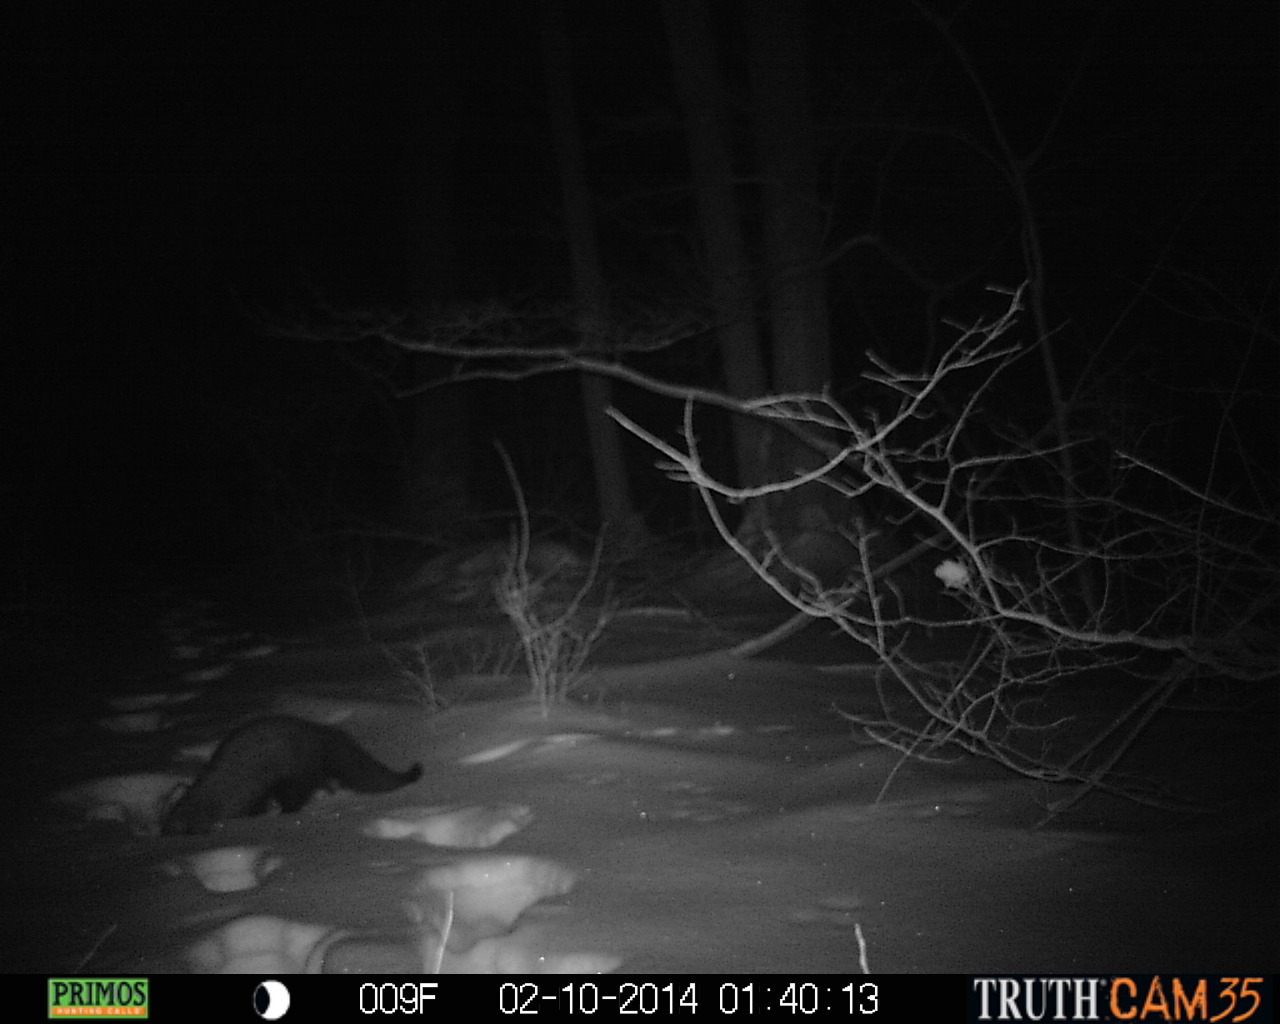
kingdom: Animalia
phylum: Chordata
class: Mammalia
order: Carnivora
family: Mustelidae
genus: Pekania
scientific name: Pekania pennanti
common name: Fisher
